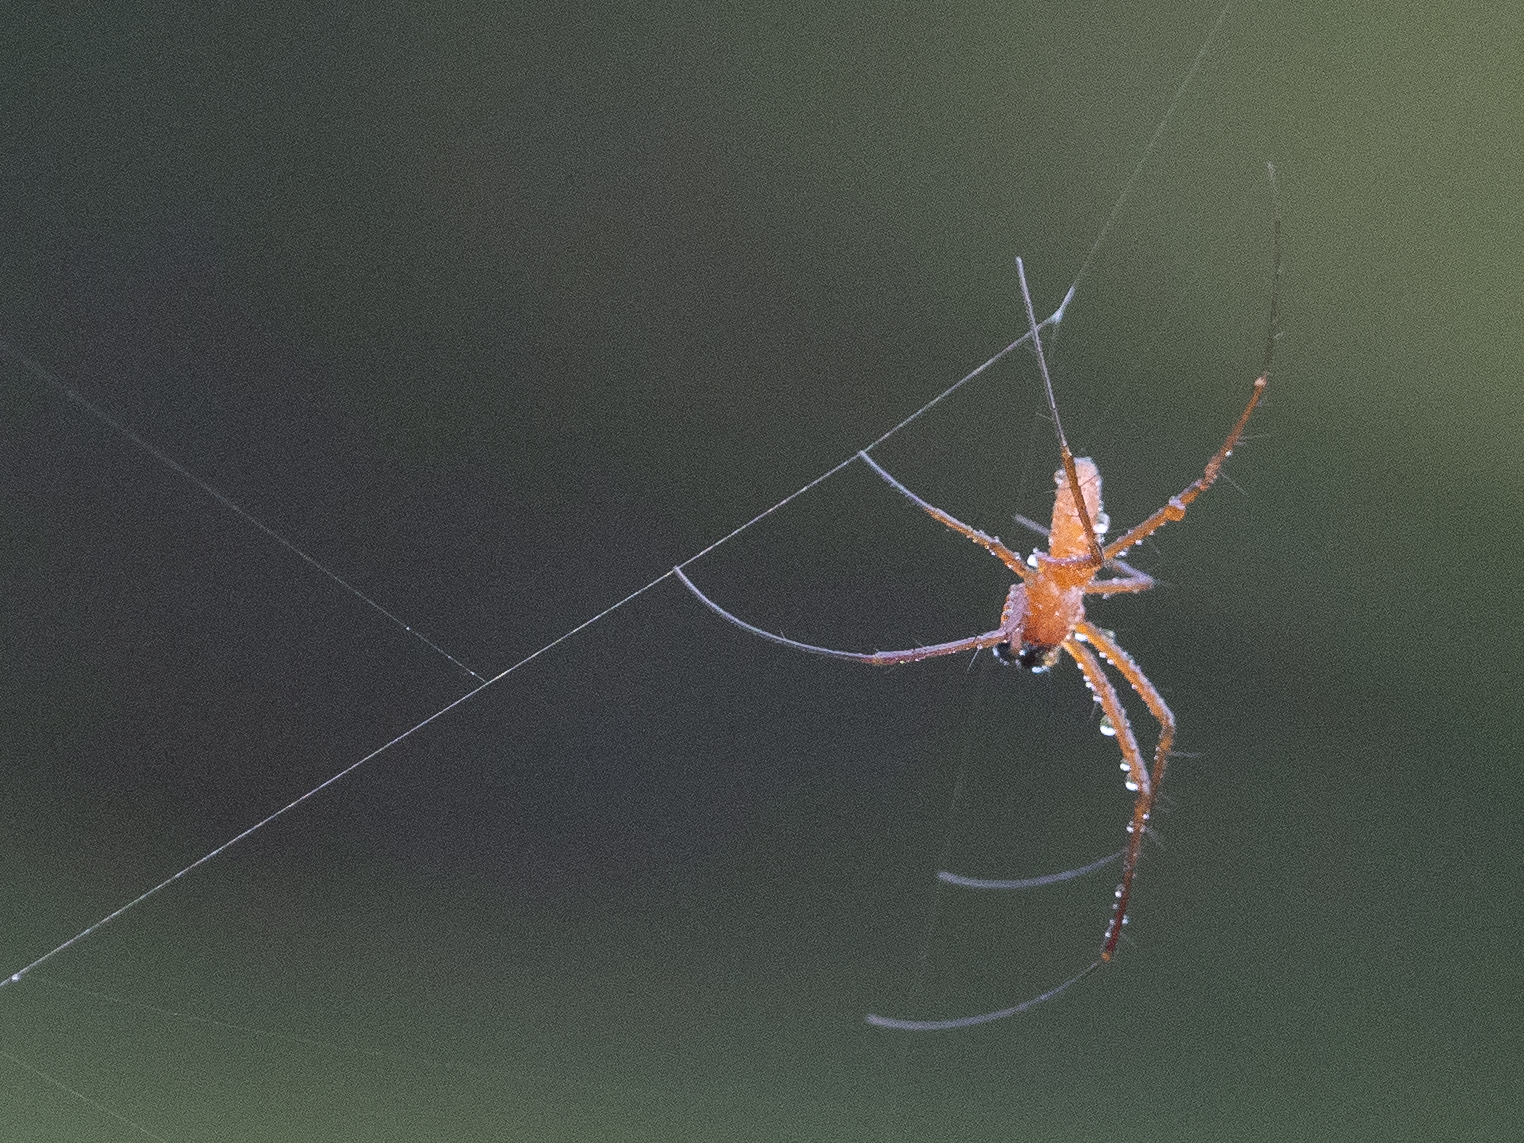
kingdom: Animalia
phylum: Arthropoda
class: Arachnida
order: Araneae
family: Araneidae
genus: Nephila
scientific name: Nephila pilipes
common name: Giant golden orb weaver
